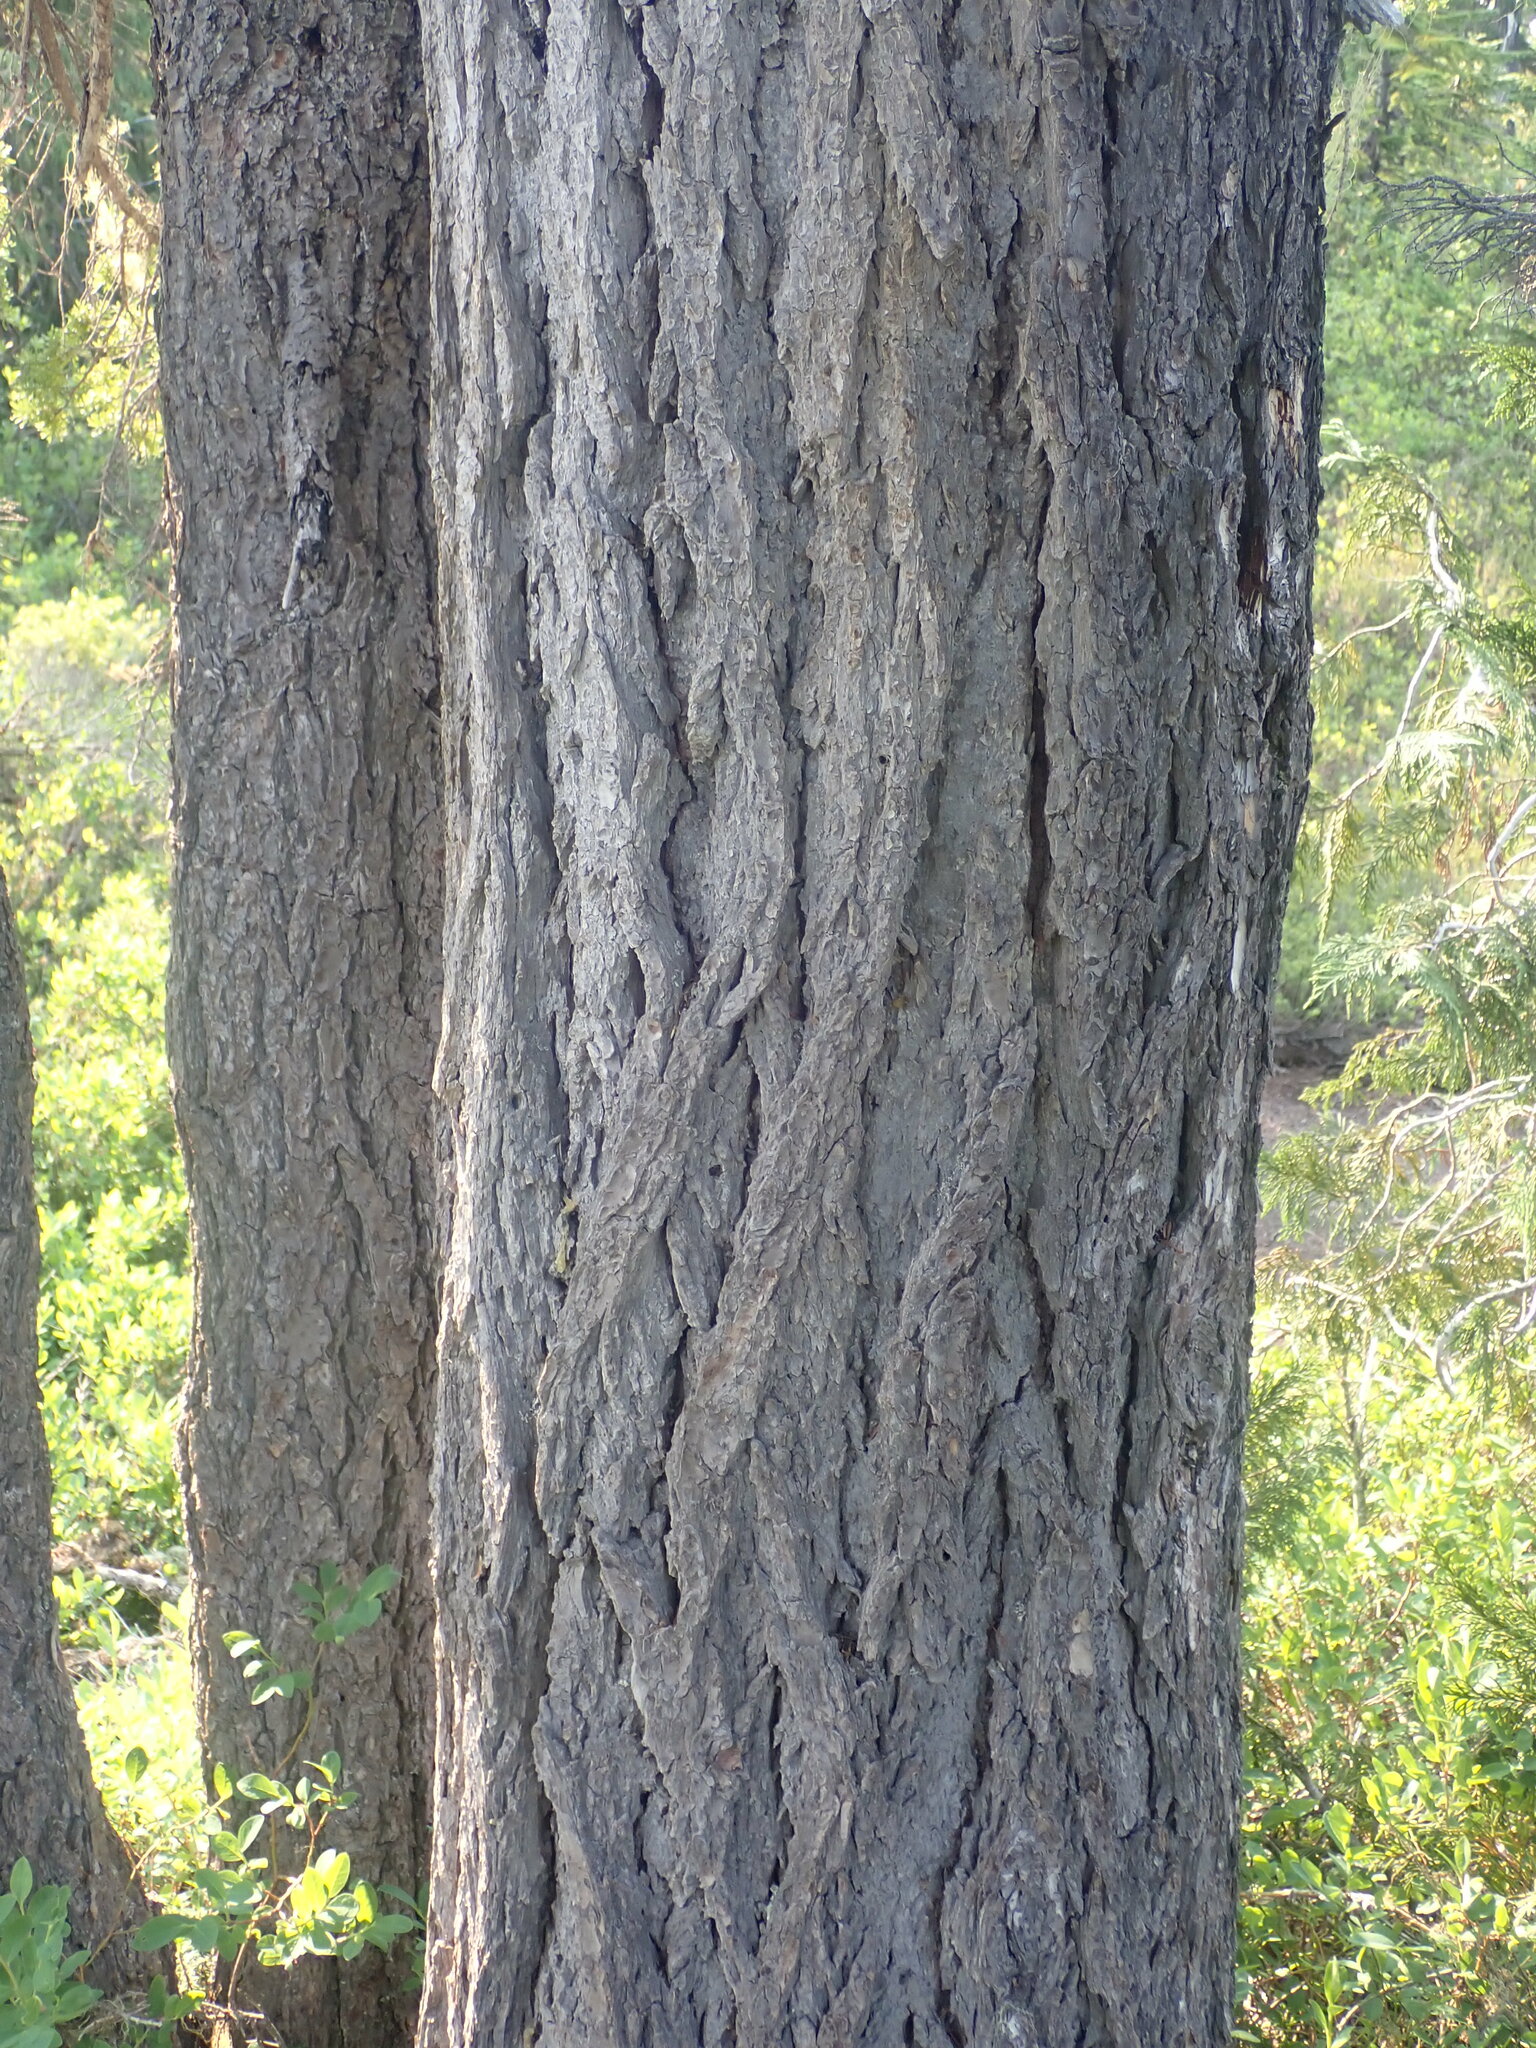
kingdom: Plantae
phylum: Tracheophyta
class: Pinopsida
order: Pinales
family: Pinaceae
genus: Tsuga
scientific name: Tsuga mertensiana
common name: Mountain hemlock
